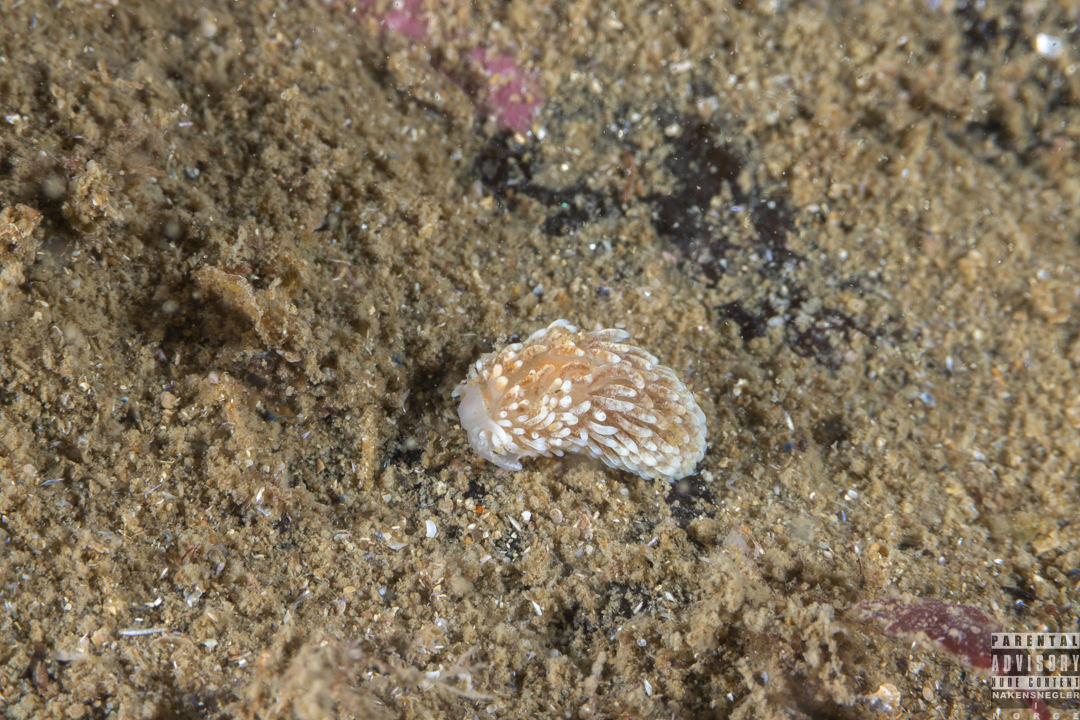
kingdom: Animalia
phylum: Mollusca
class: Gastropoda
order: Nudibranchia
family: Aeolidiidae
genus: Aeolidiella
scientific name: Aeolidiella glauca
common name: Orange-brown aeolid
